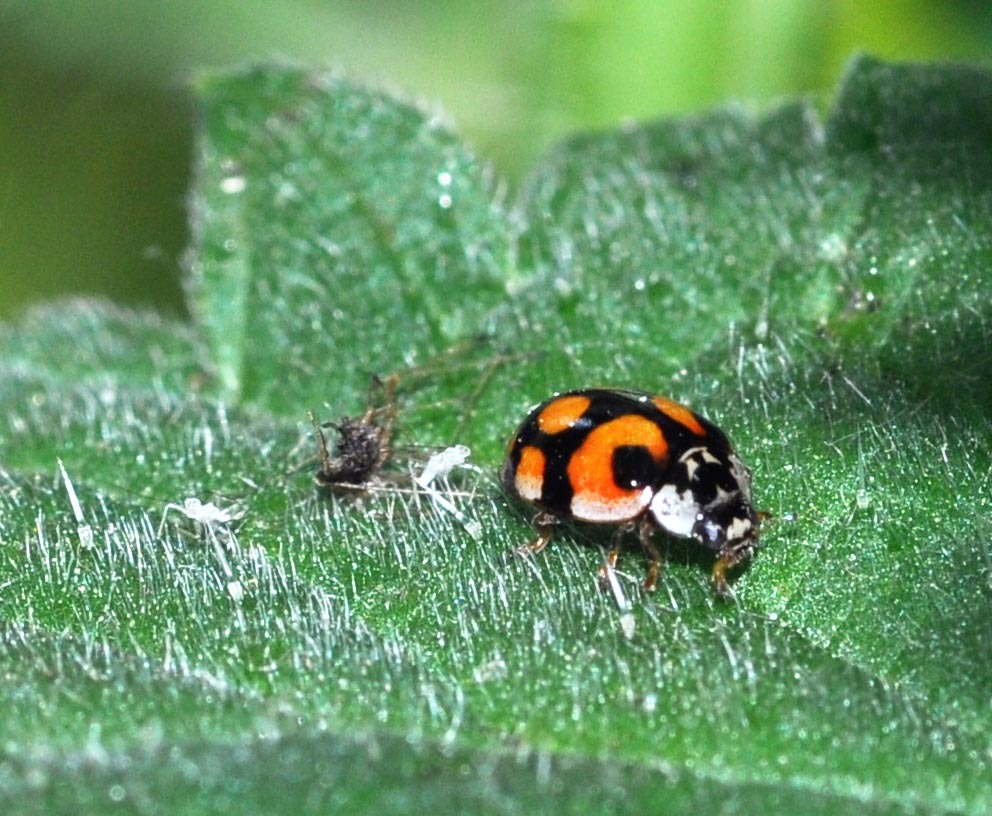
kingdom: Animalia
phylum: Arthropoda
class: Insecta
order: Coleoptera
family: Coccinellidae
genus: Adalia
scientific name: Adalia decempunctata
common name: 10-spot ladybird
